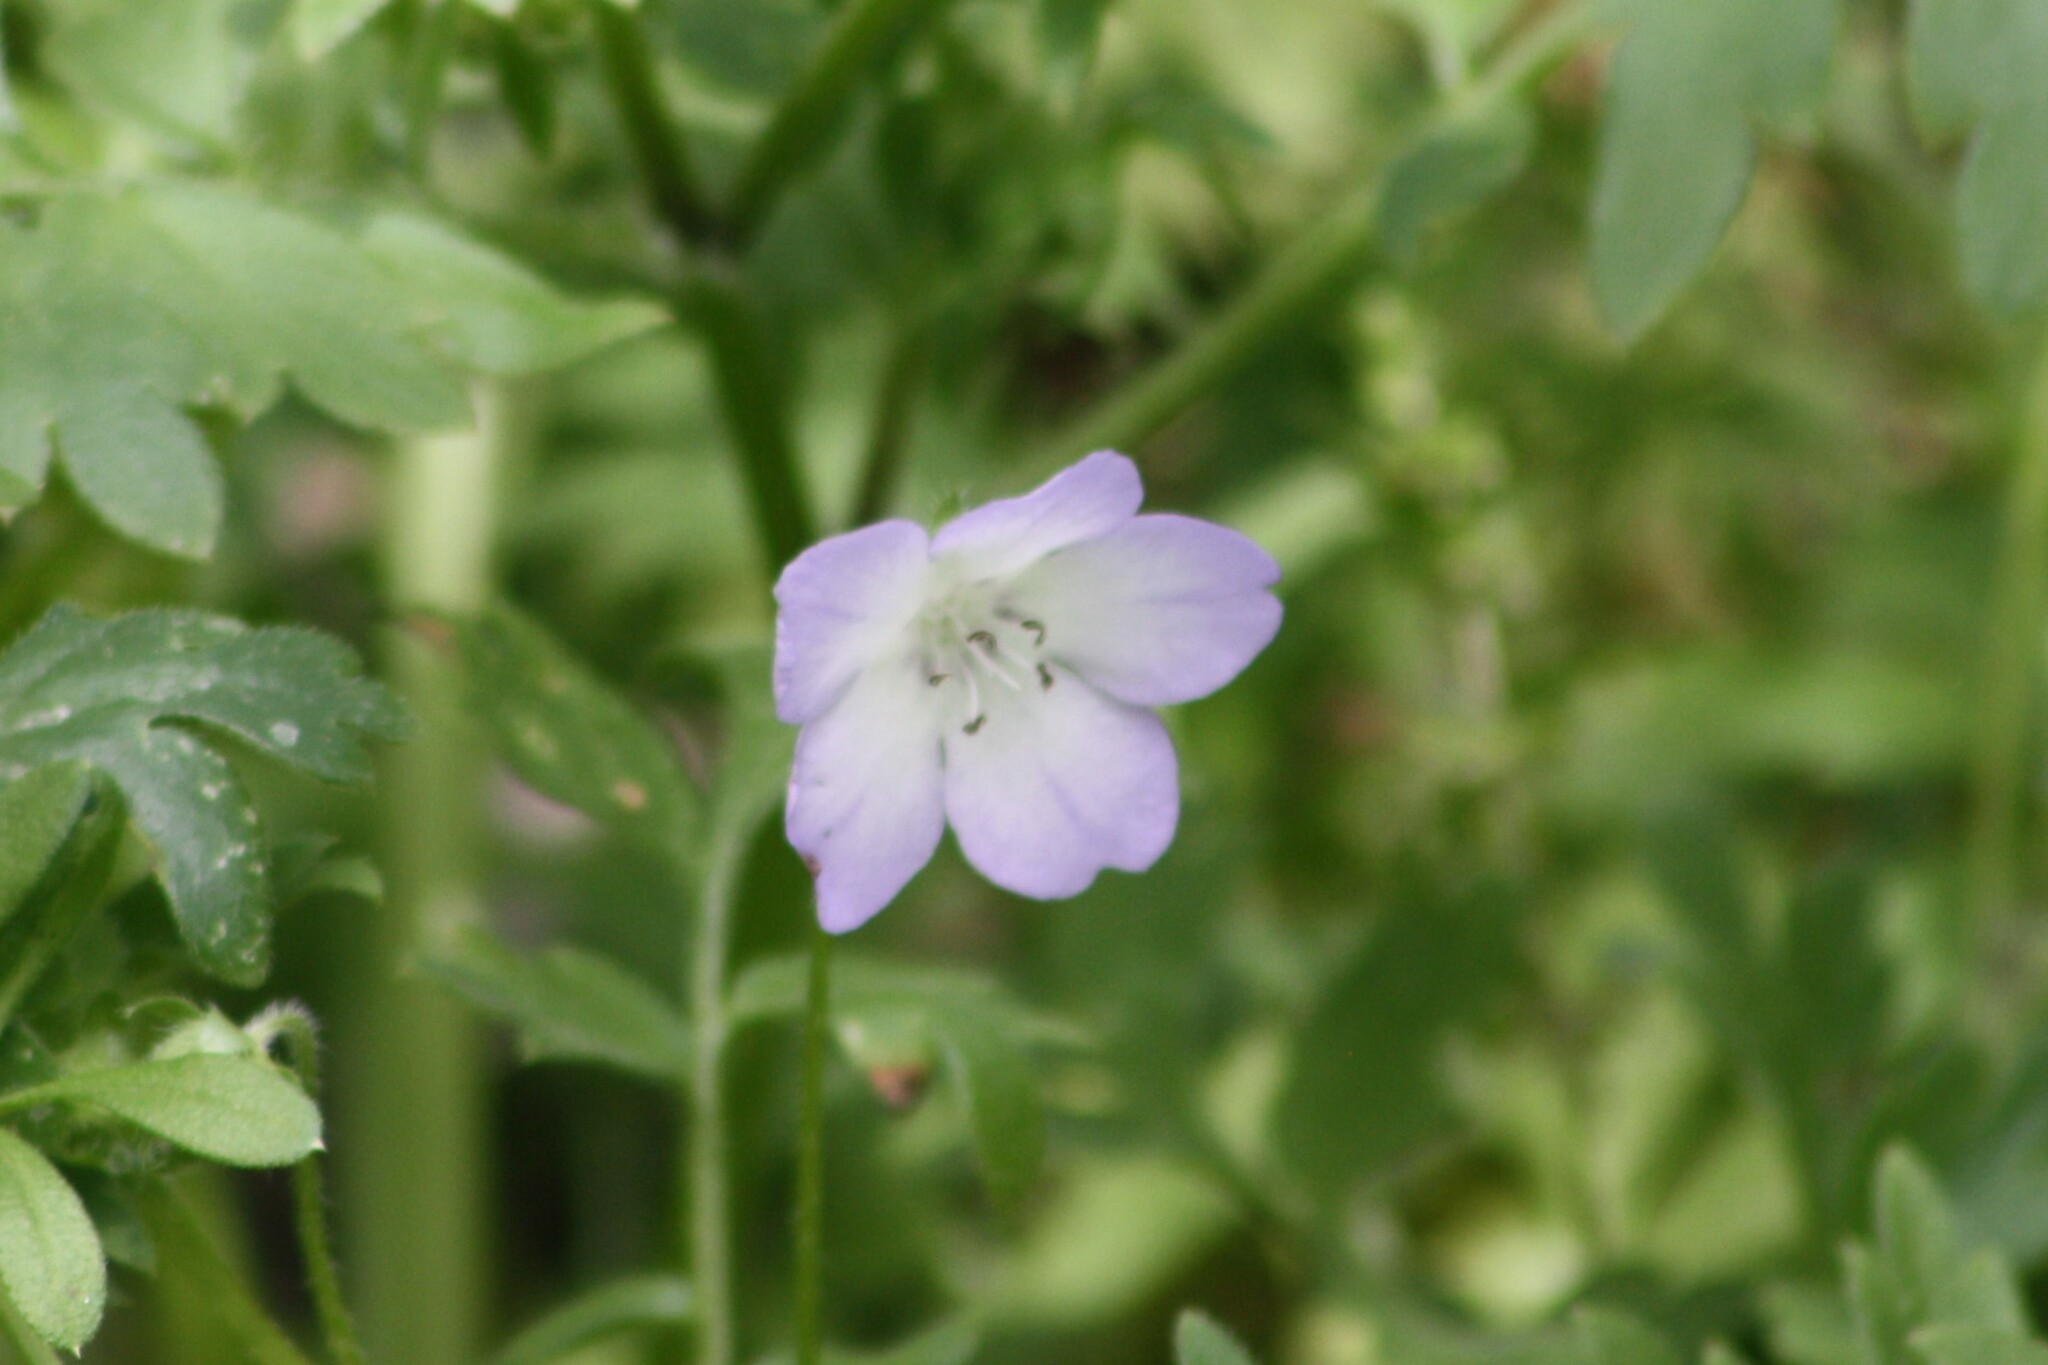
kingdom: Plantae
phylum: Tracheophyta
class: Magnoliopsida
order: Boraginales
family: Hydrophyllaceae
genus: Nemophila
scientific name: Nemophila phacelioides
